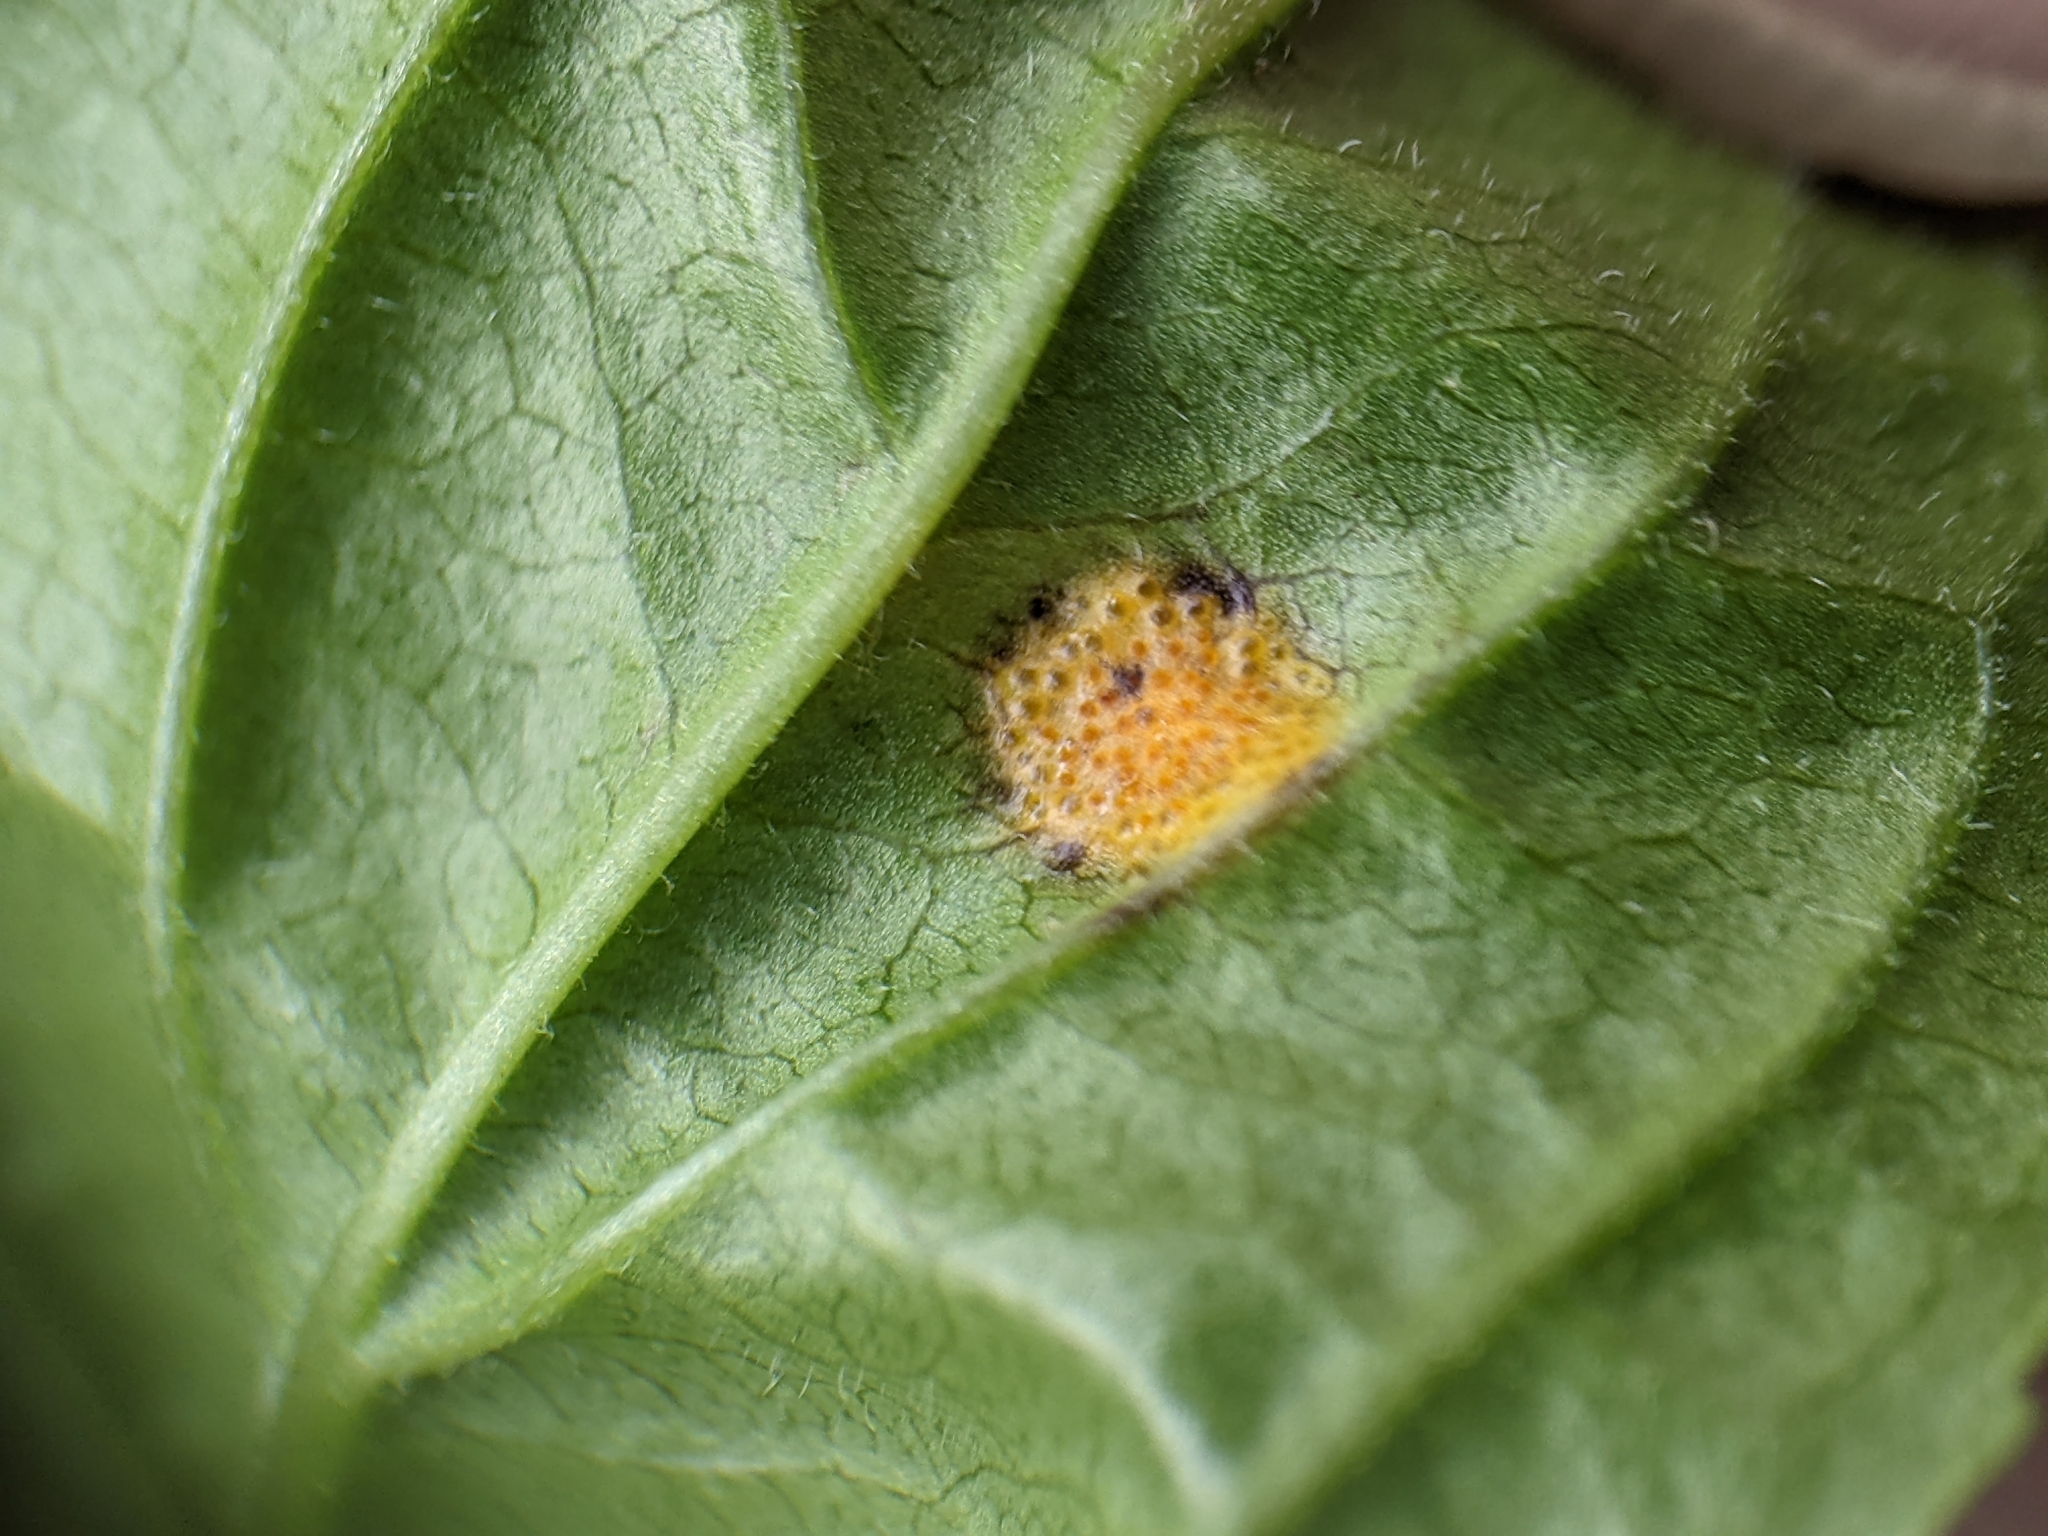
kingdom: Fungi
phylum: Basidiomycota
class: Pucciniomycetes
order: Pucciniales
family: Pucciniaceae
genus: Puccinia
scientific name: Puccinia coronata
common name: Crown rust
